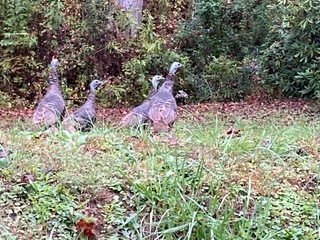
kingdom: Animalia
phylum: Chordata
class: Aves
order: Galliformes
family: Phasianidae
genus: Meleagris
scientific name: Meleagris gallopavo
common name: Wild turkey
